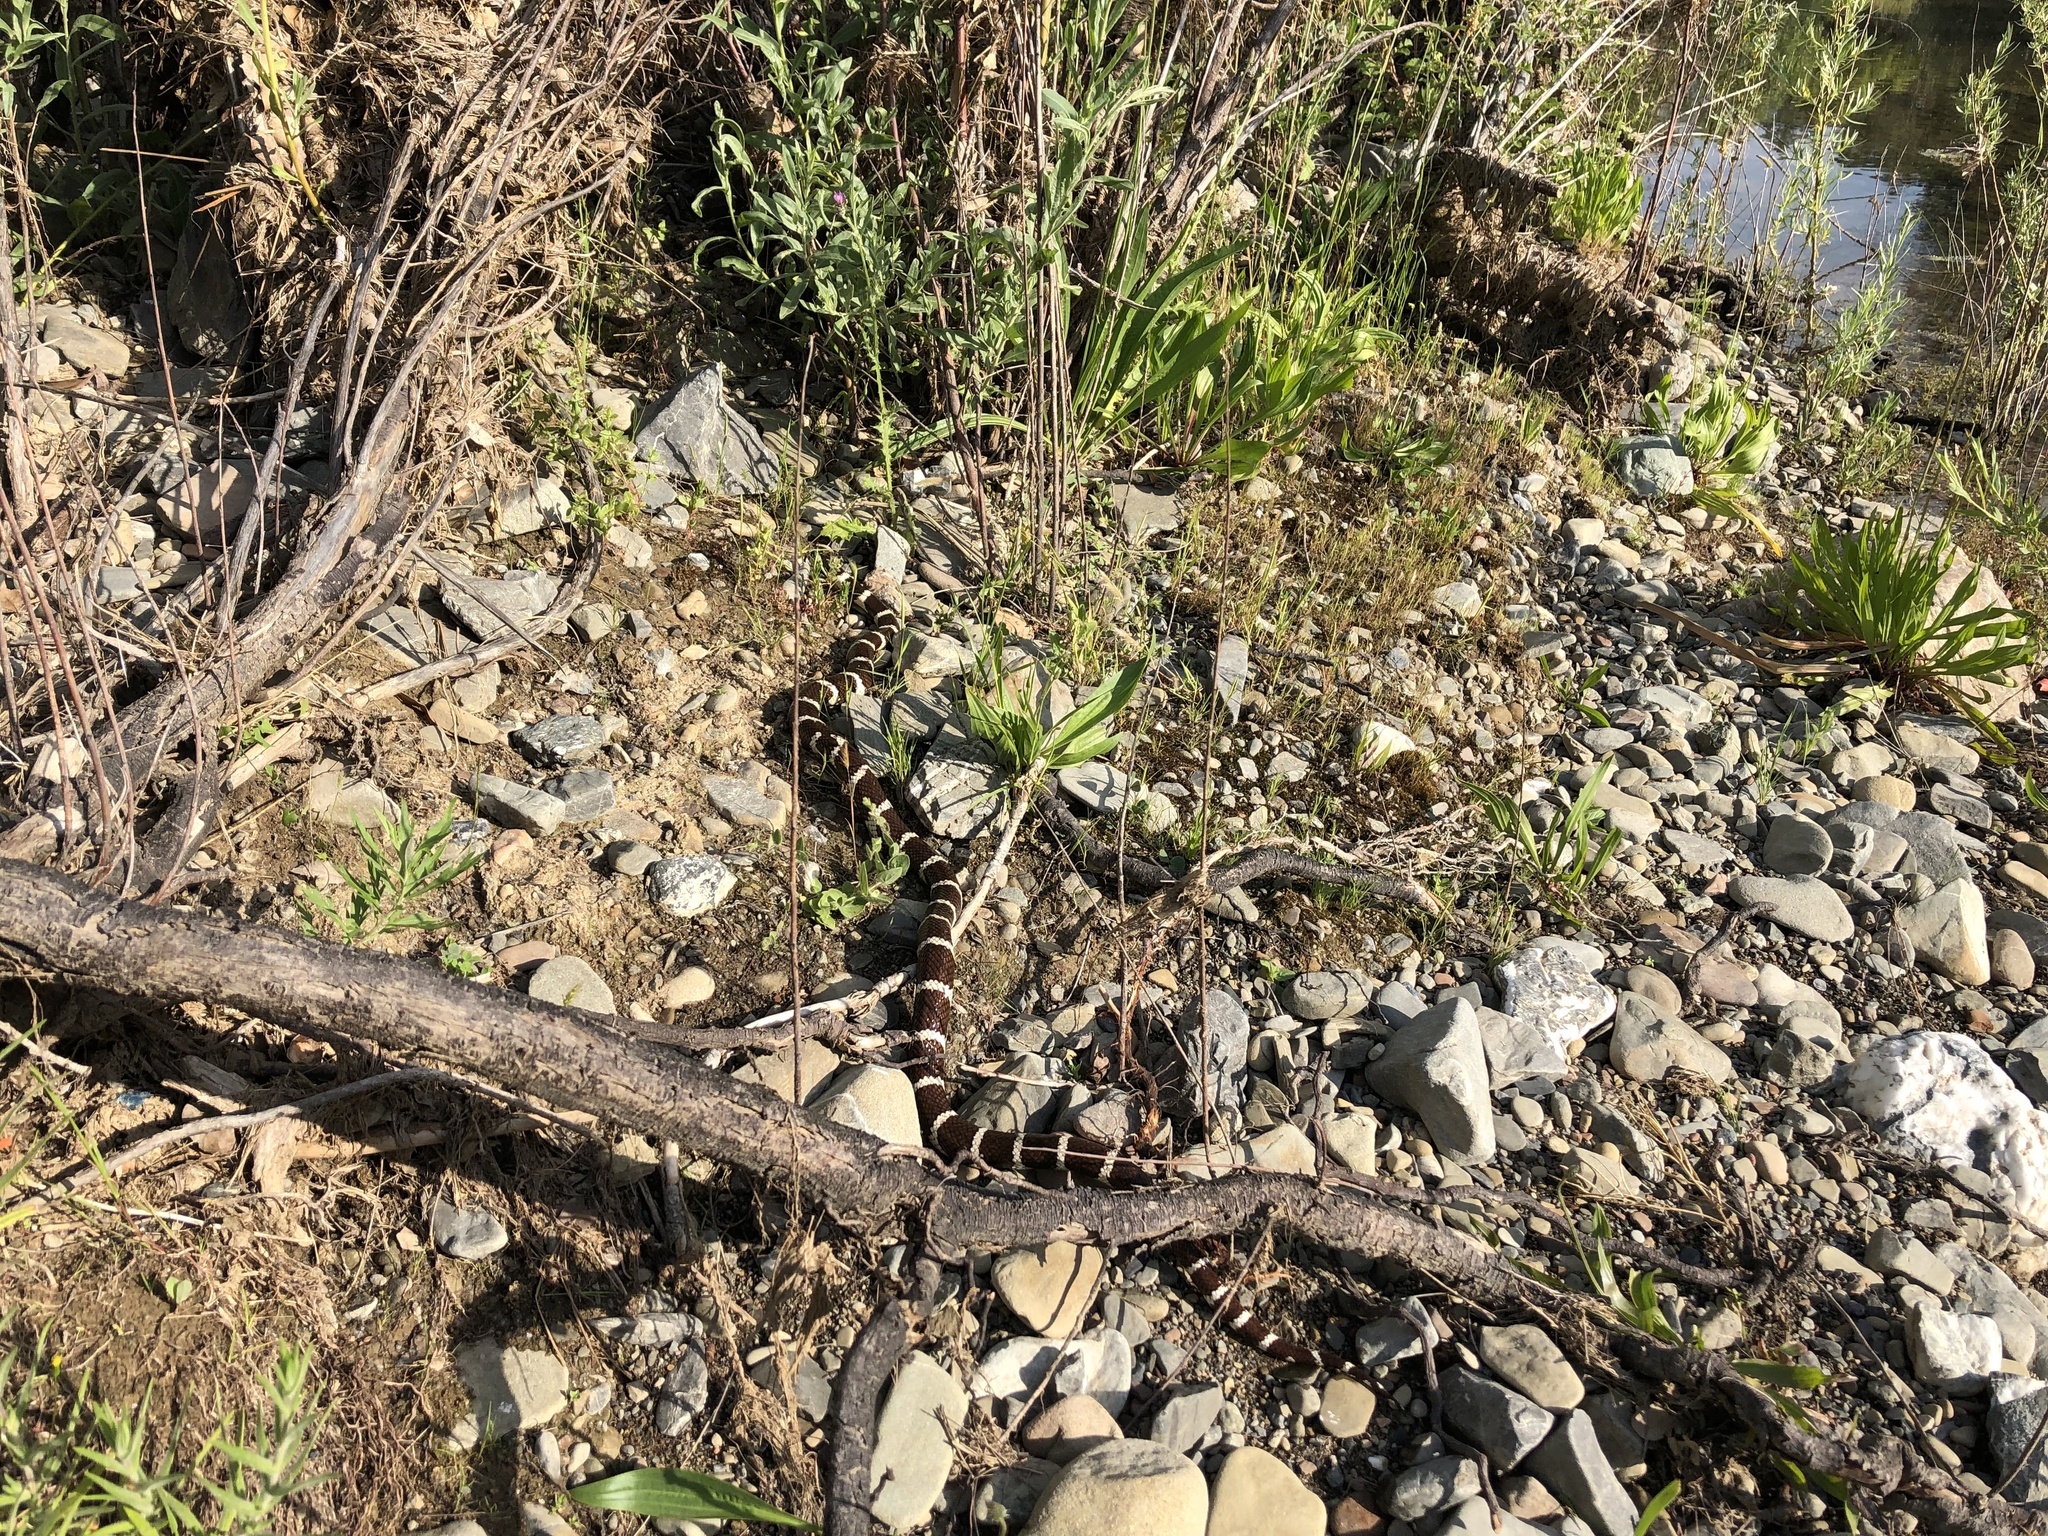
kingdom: Animalia
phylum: Chordata
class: Squamata
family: Colubridae
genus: Lampropeltis
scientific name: Lampropeltis californiae
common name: California kingsnake
